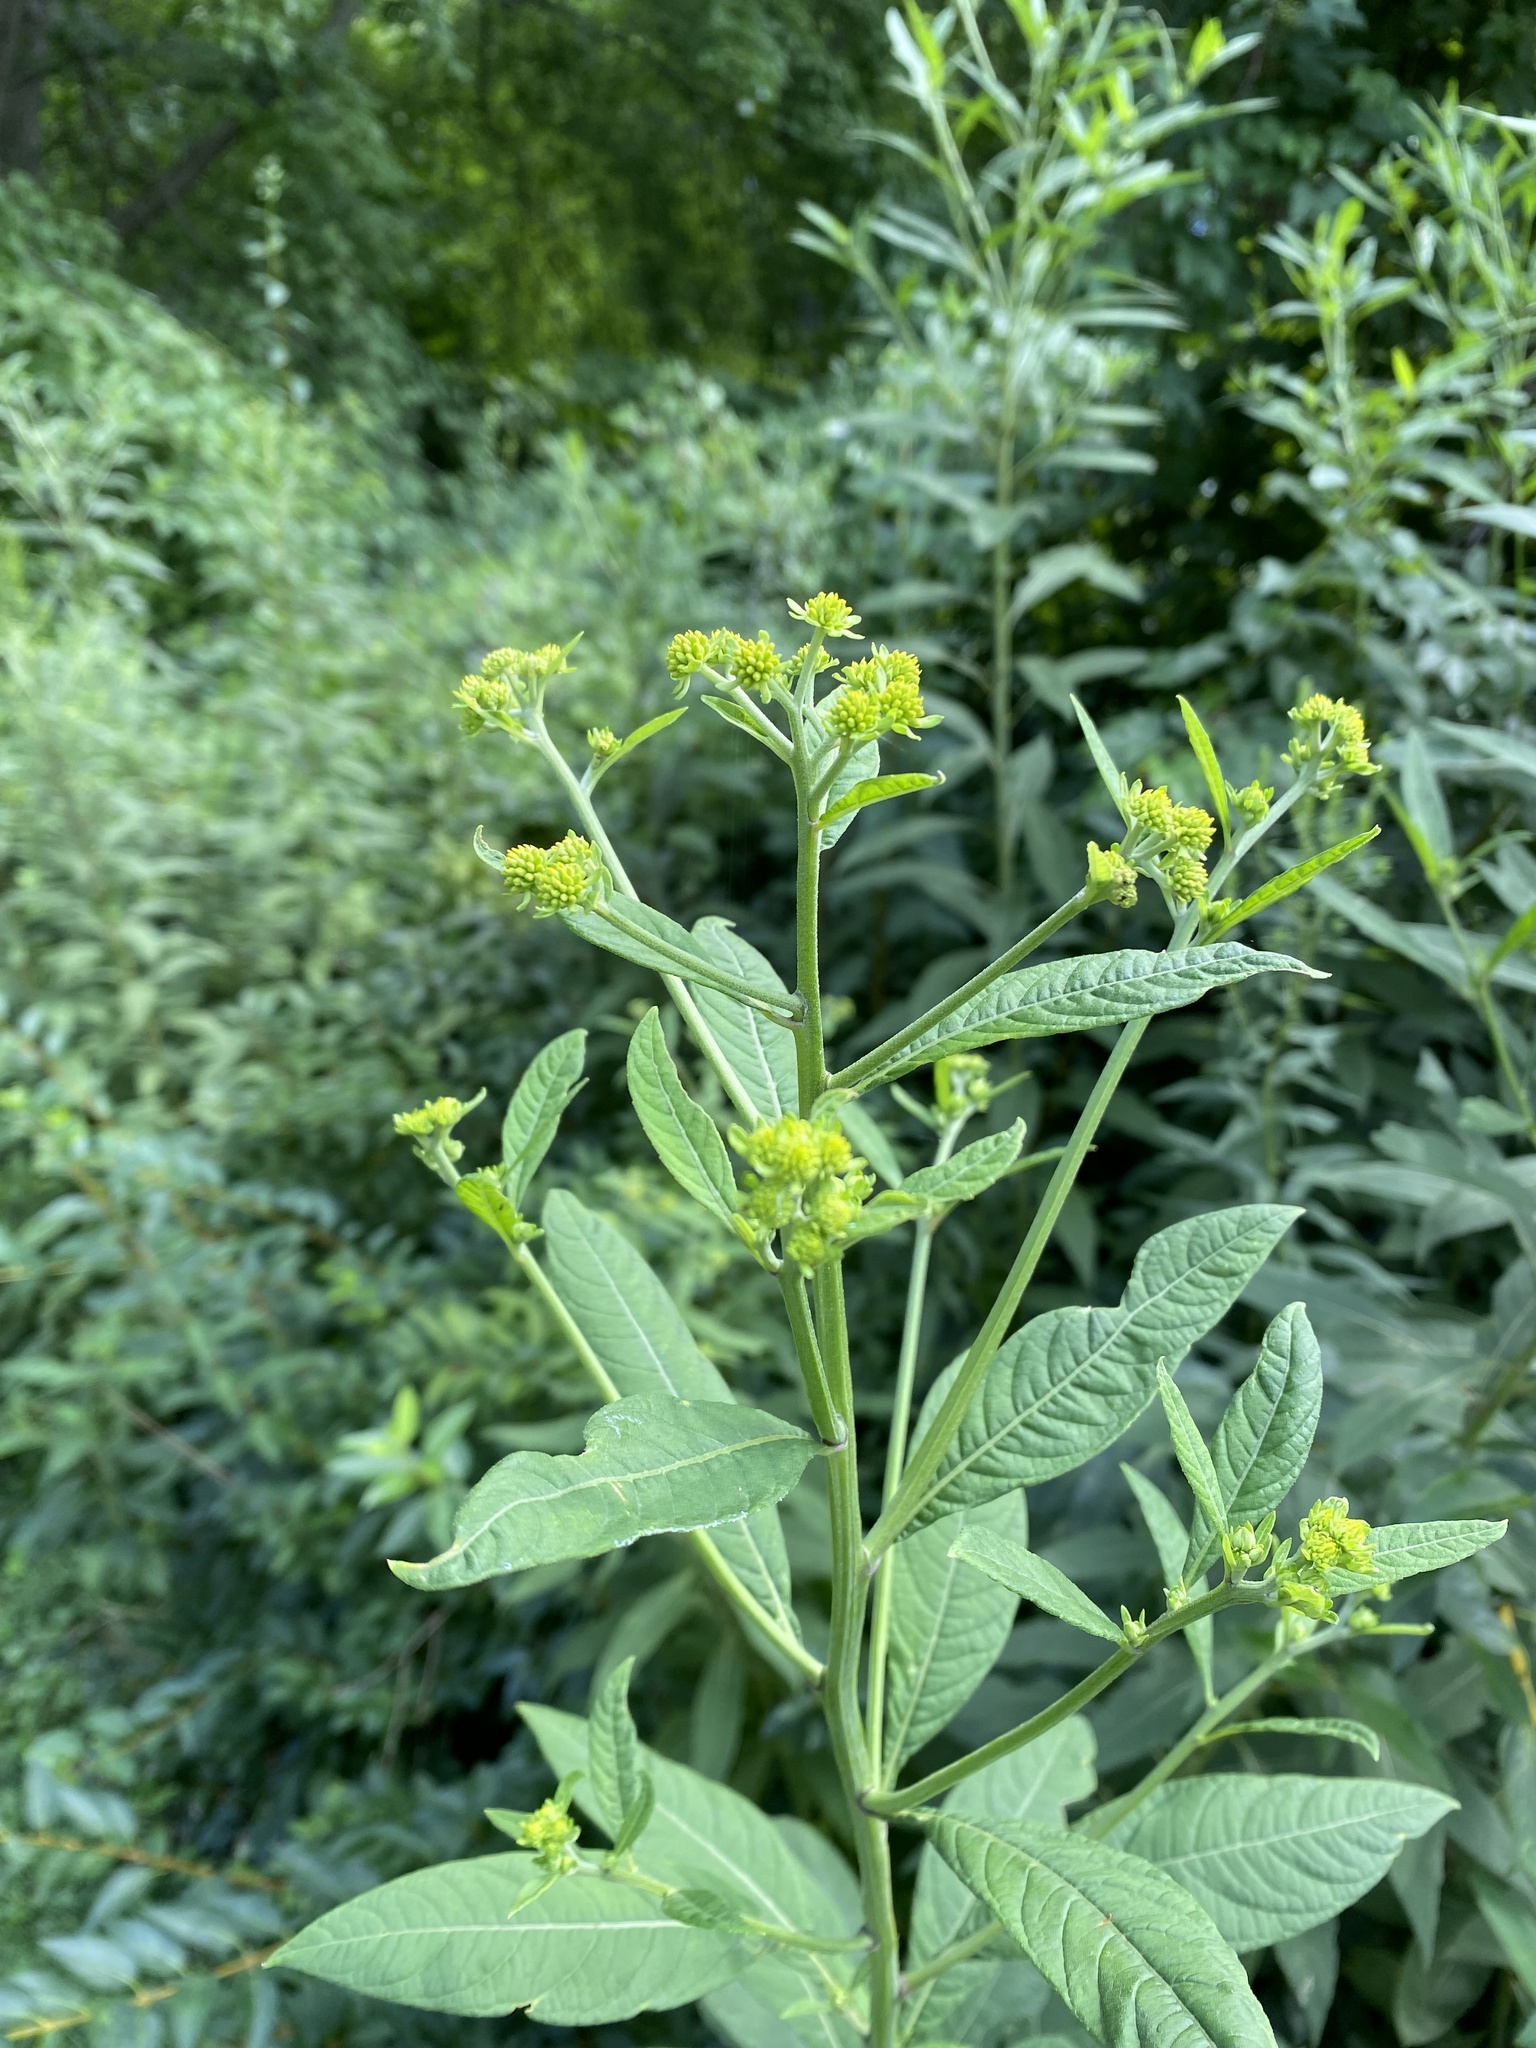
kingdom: Plantae
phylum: Tracheophyta
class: Magnoliopsida
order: Asterales
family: Asteraceae
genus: Verbesina
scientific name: Verbesina alternifolia
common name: Wingstem
